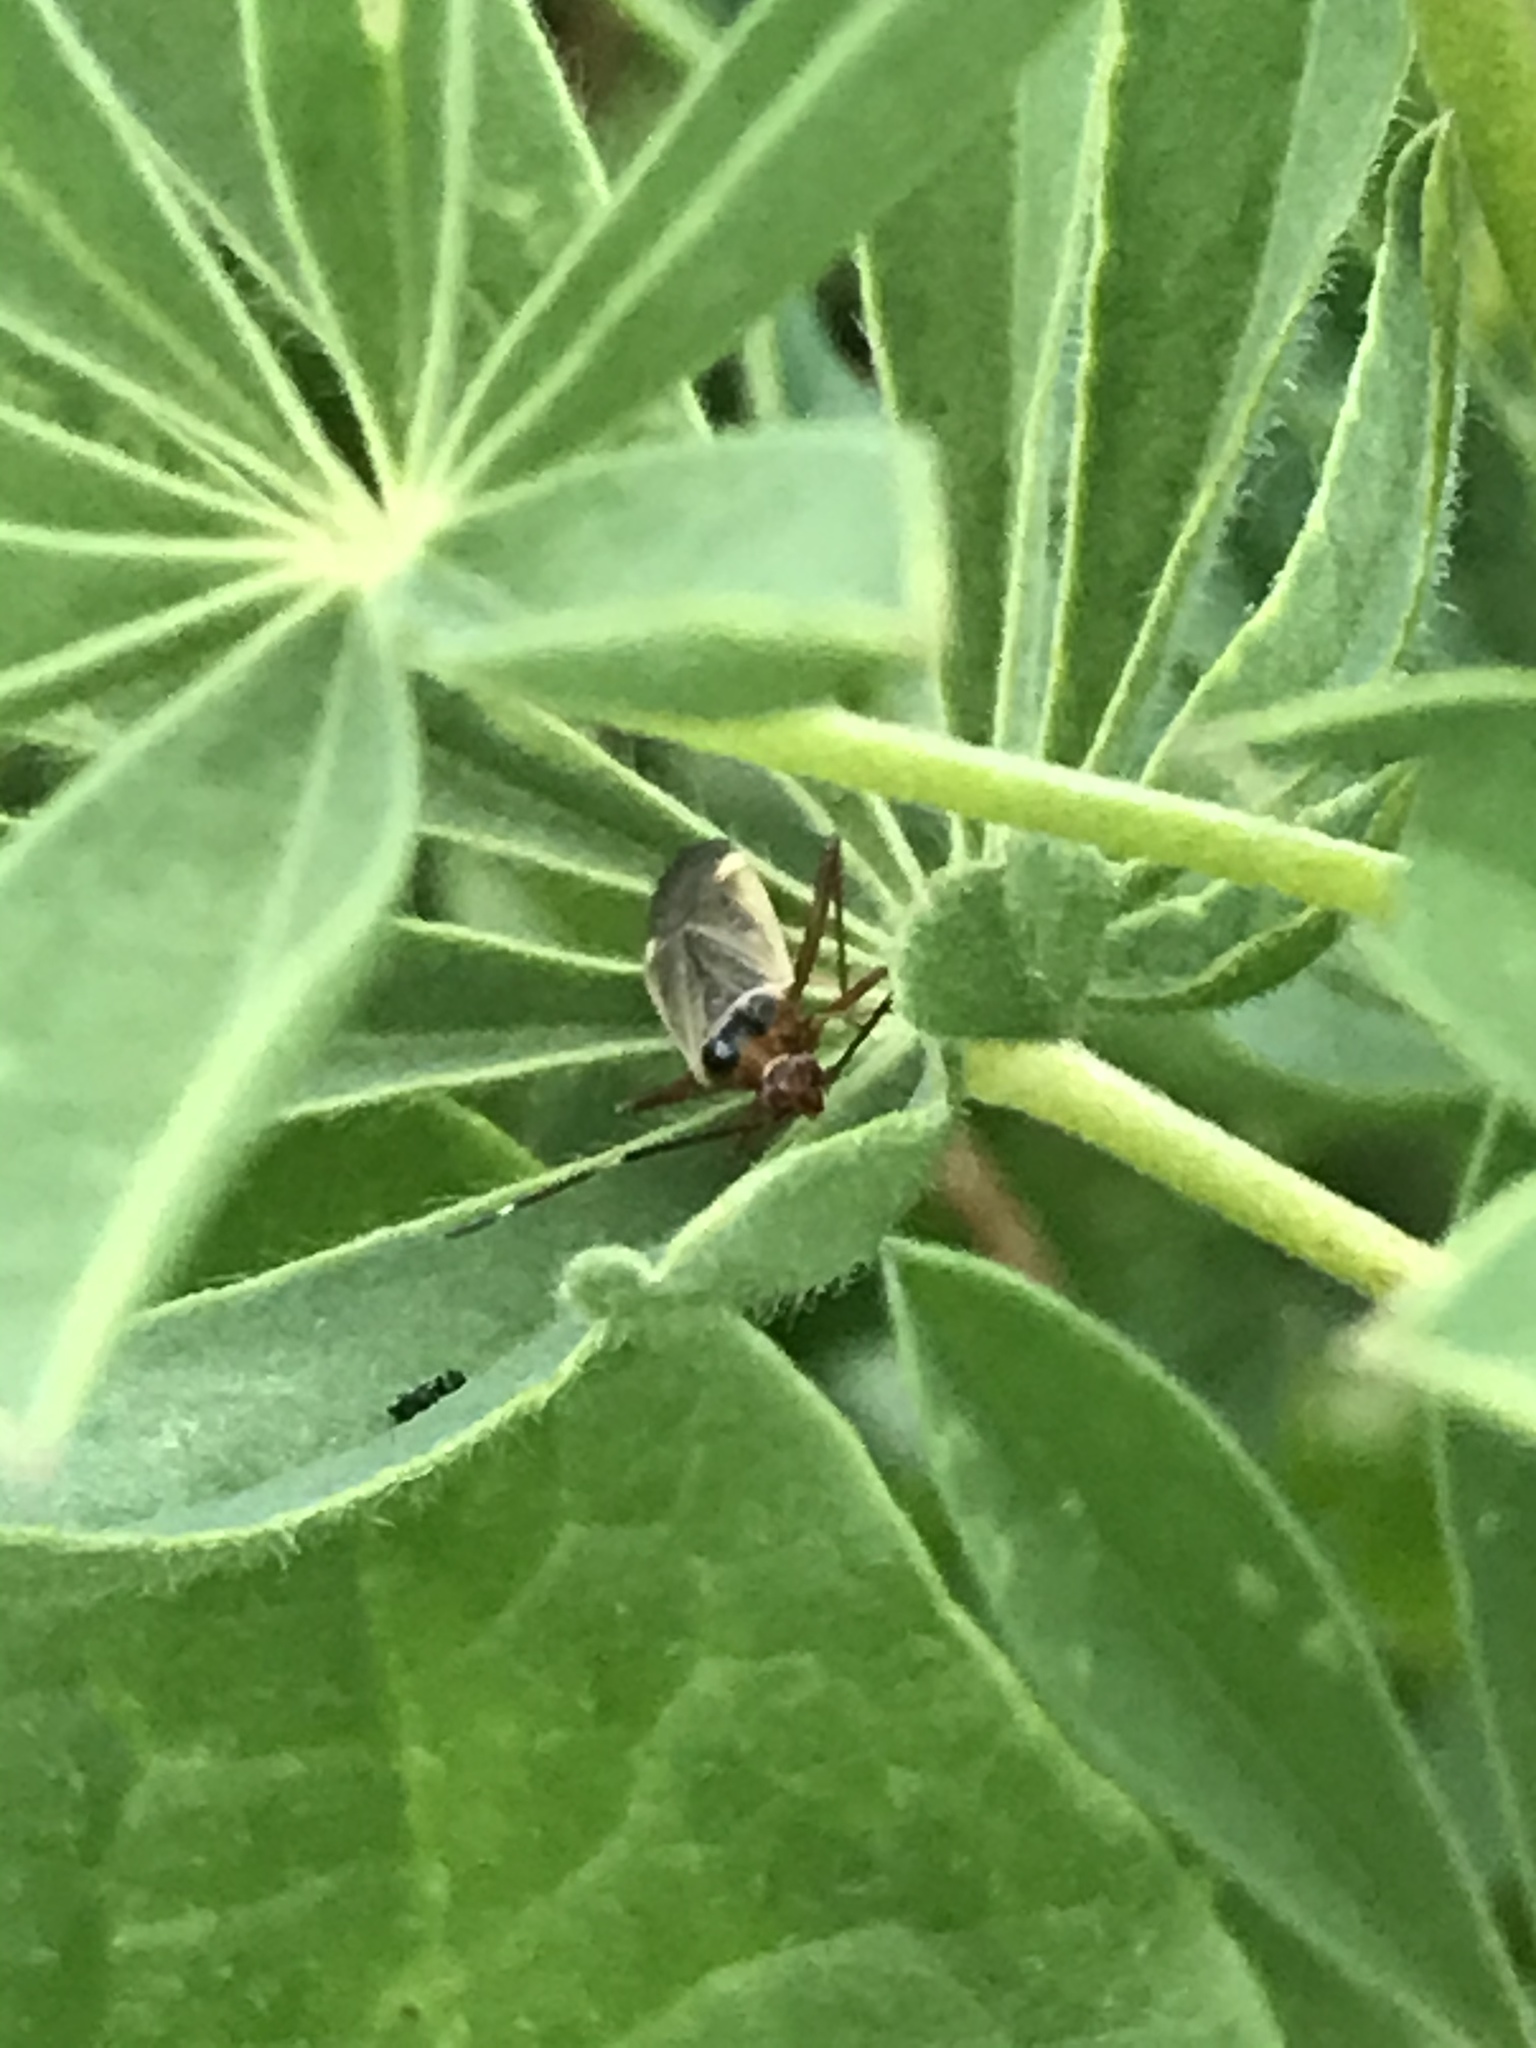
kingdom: Animalia
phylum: Arthropoda
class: Insecta
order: Hemiptera
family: Miridae
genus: Adelphocoris
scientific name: Adelphocoris rapidus
